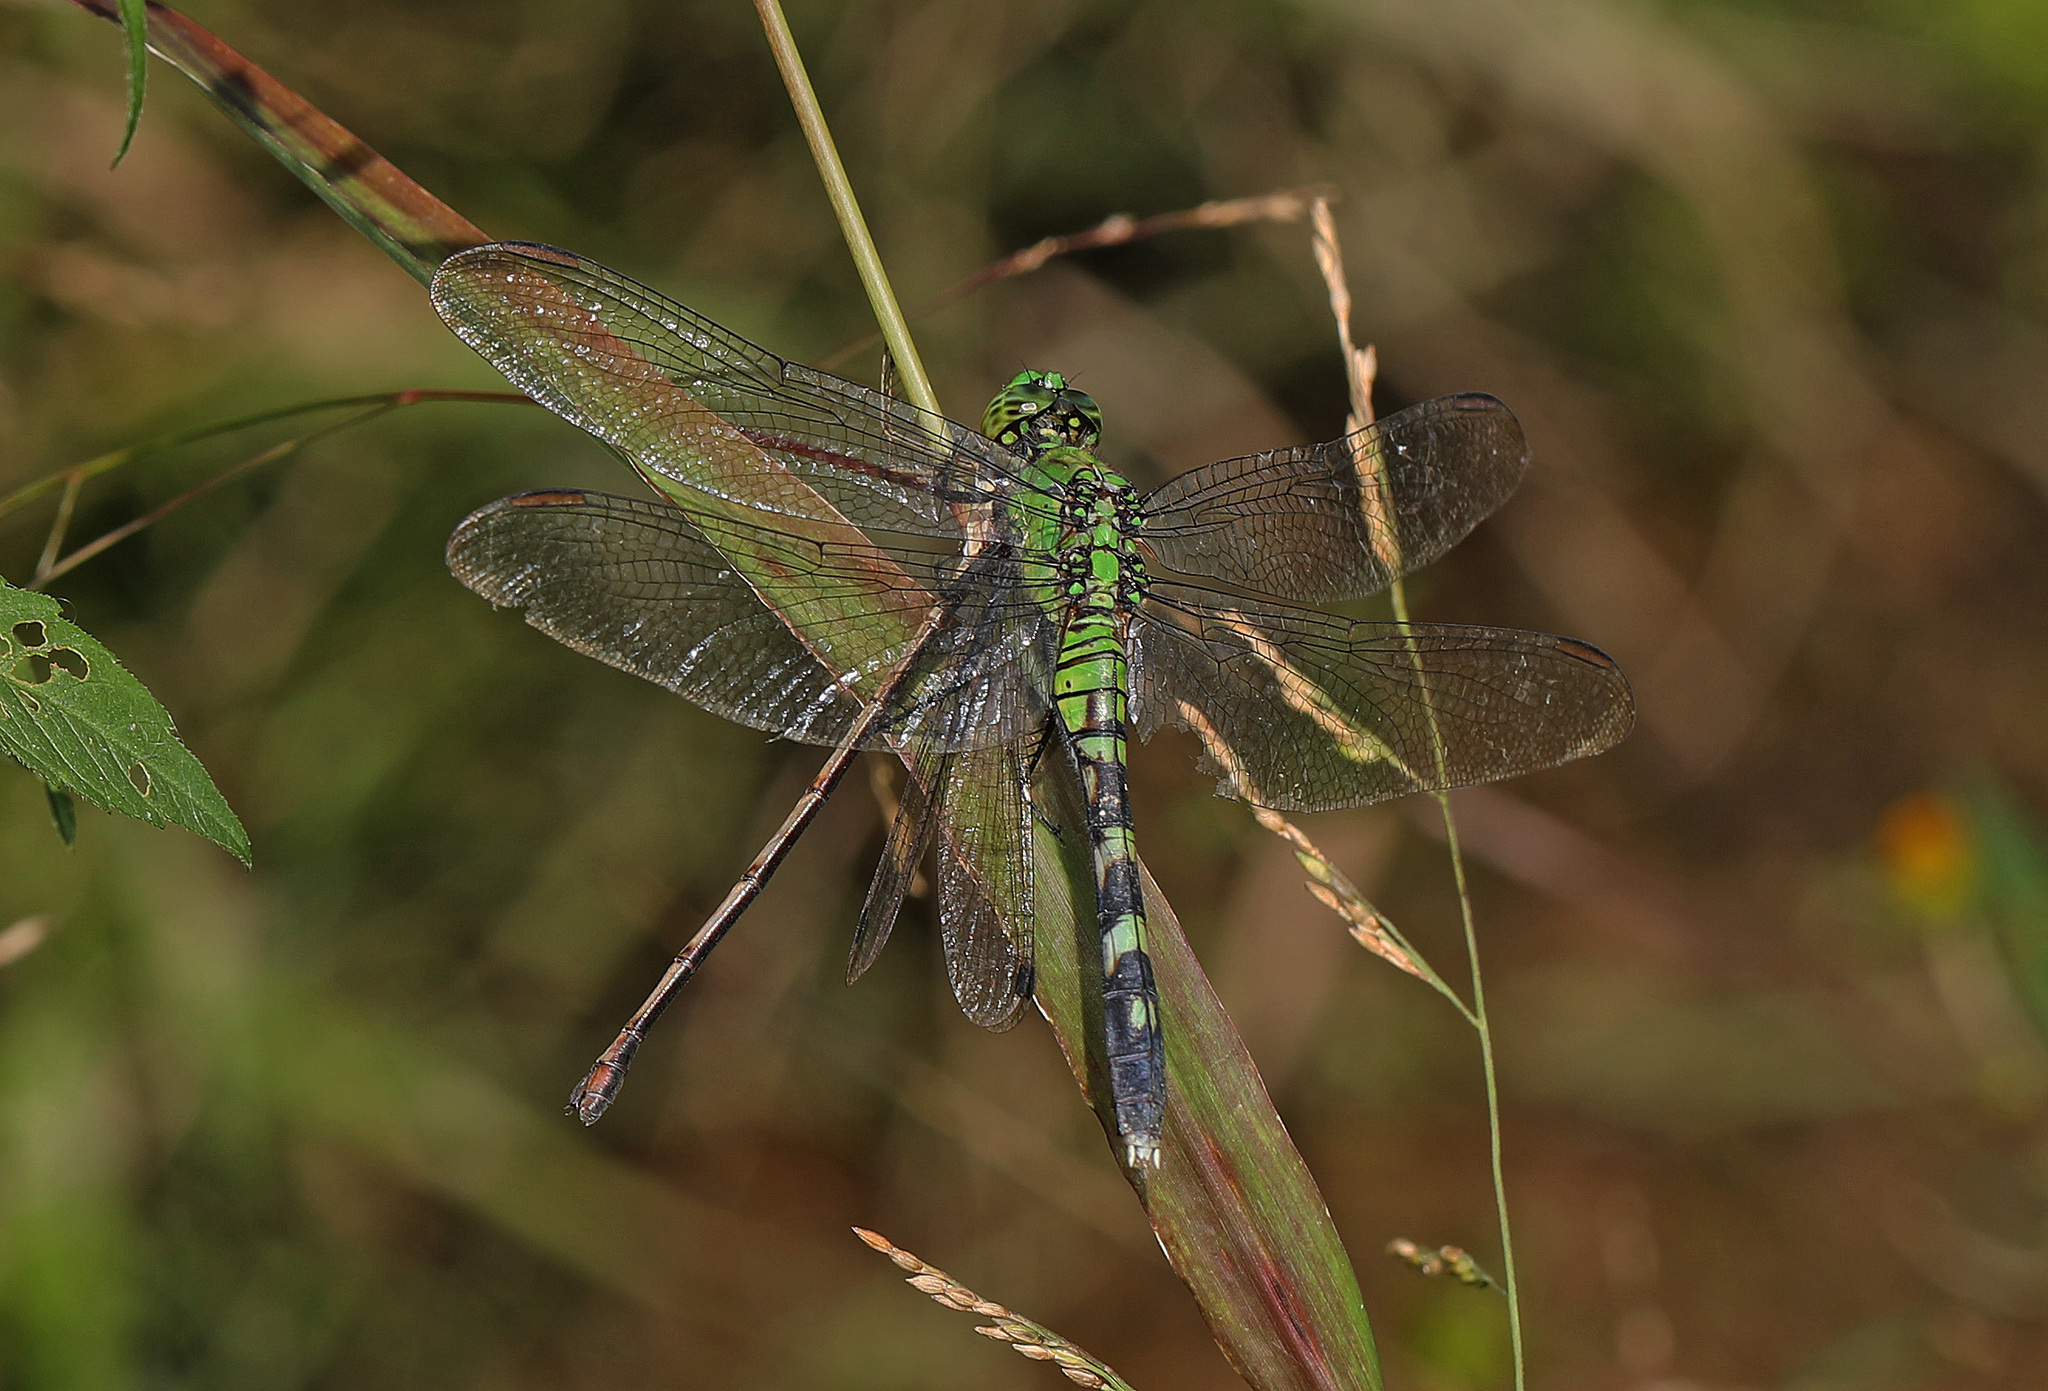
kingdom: Animalia
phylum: Arthropoda
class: Insecta
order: Odonata
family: Libellulidae
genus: Erythemis
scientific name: Erythemis simplicicollis
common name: Eastern pondhawk
